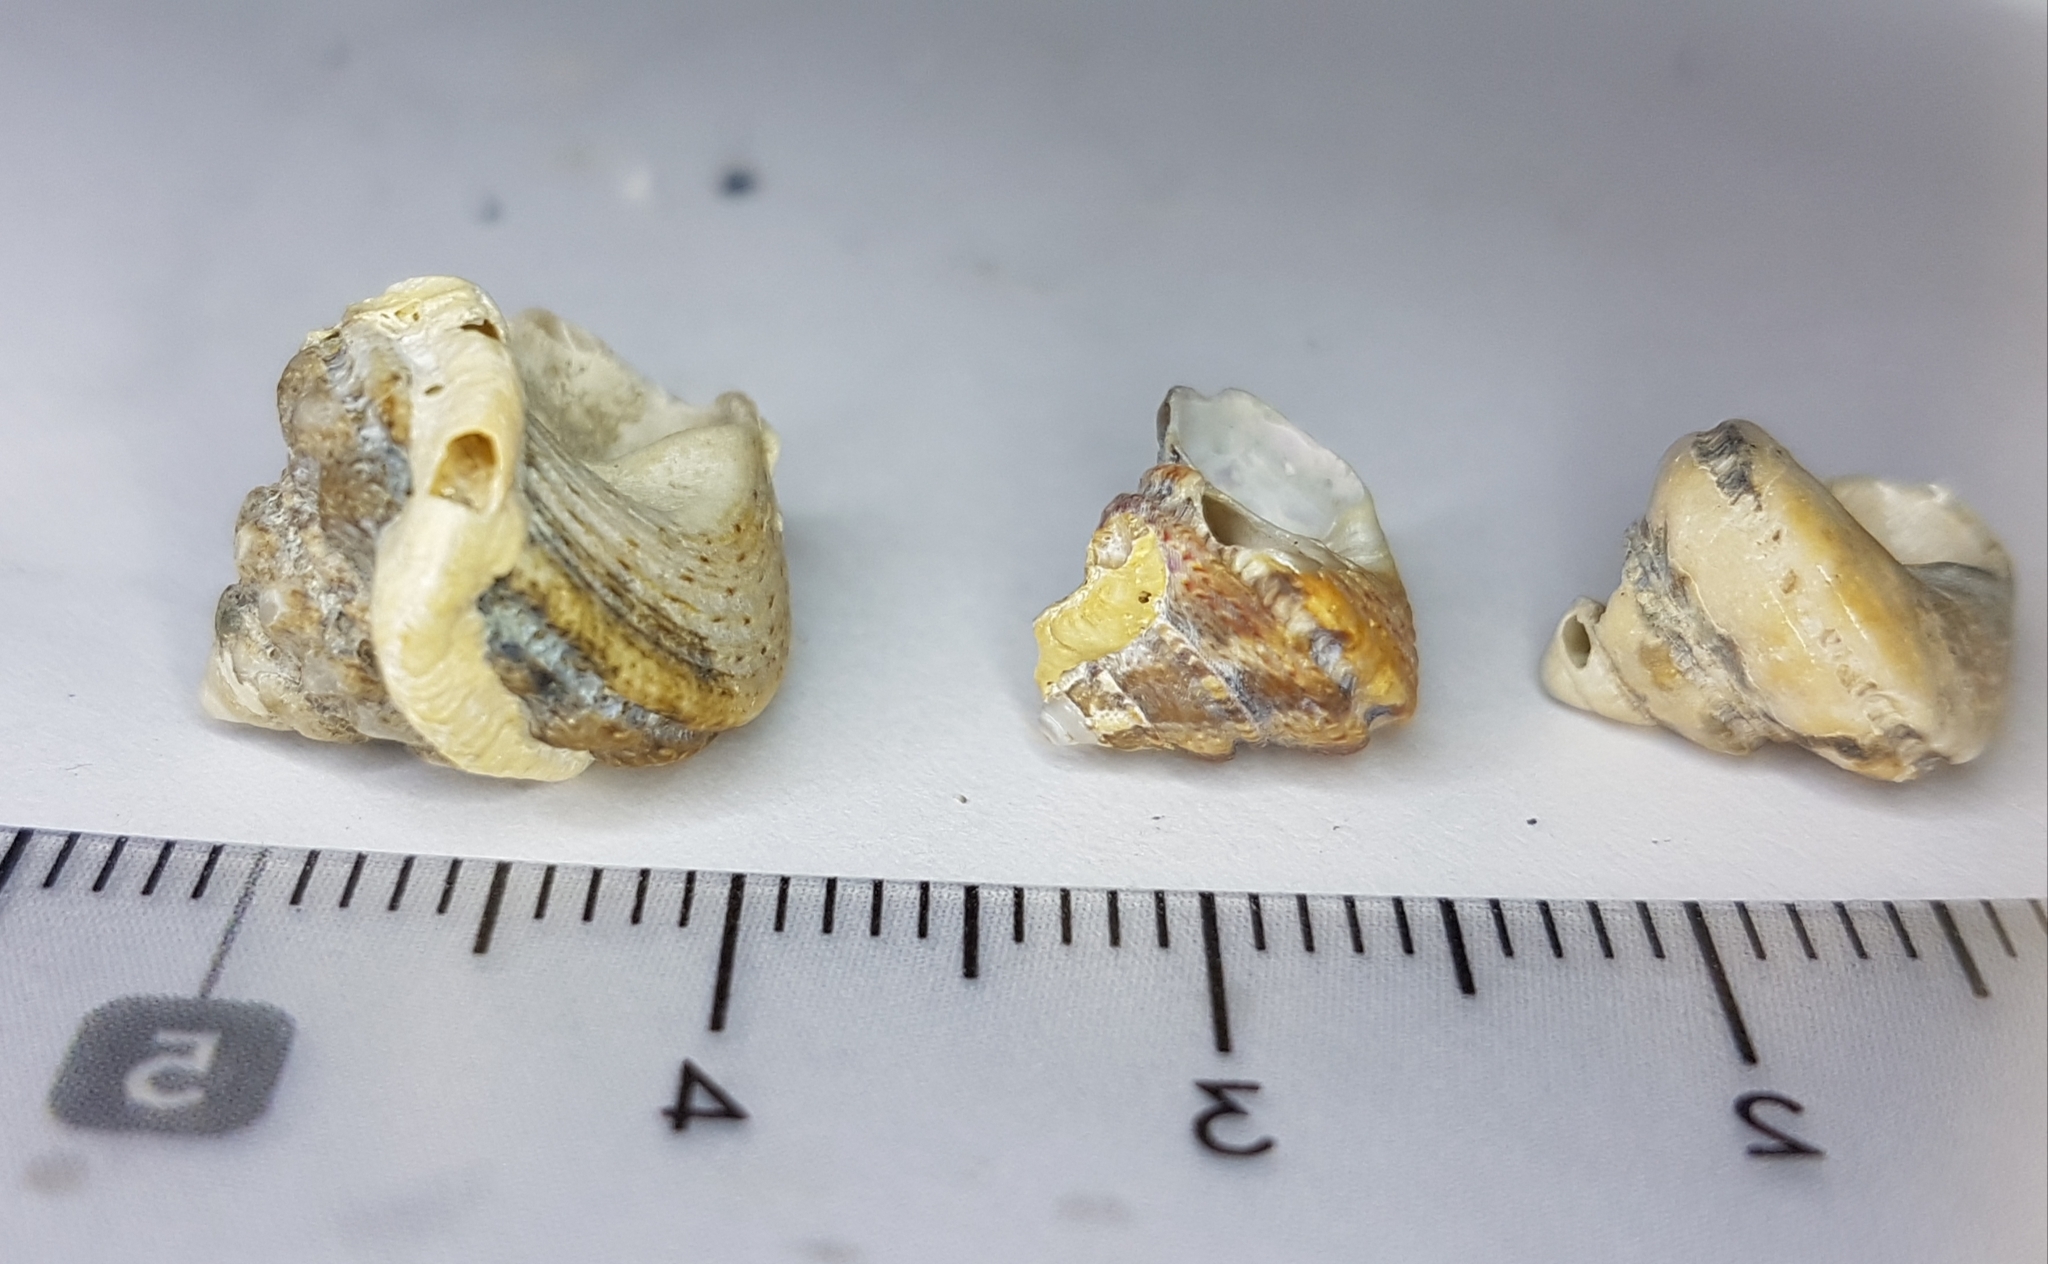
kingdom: Animalia
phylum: Mollusca
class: Gastropoda
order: Trochida
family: Trochidae
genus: Gibbula
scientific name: Gibbula fanulum
